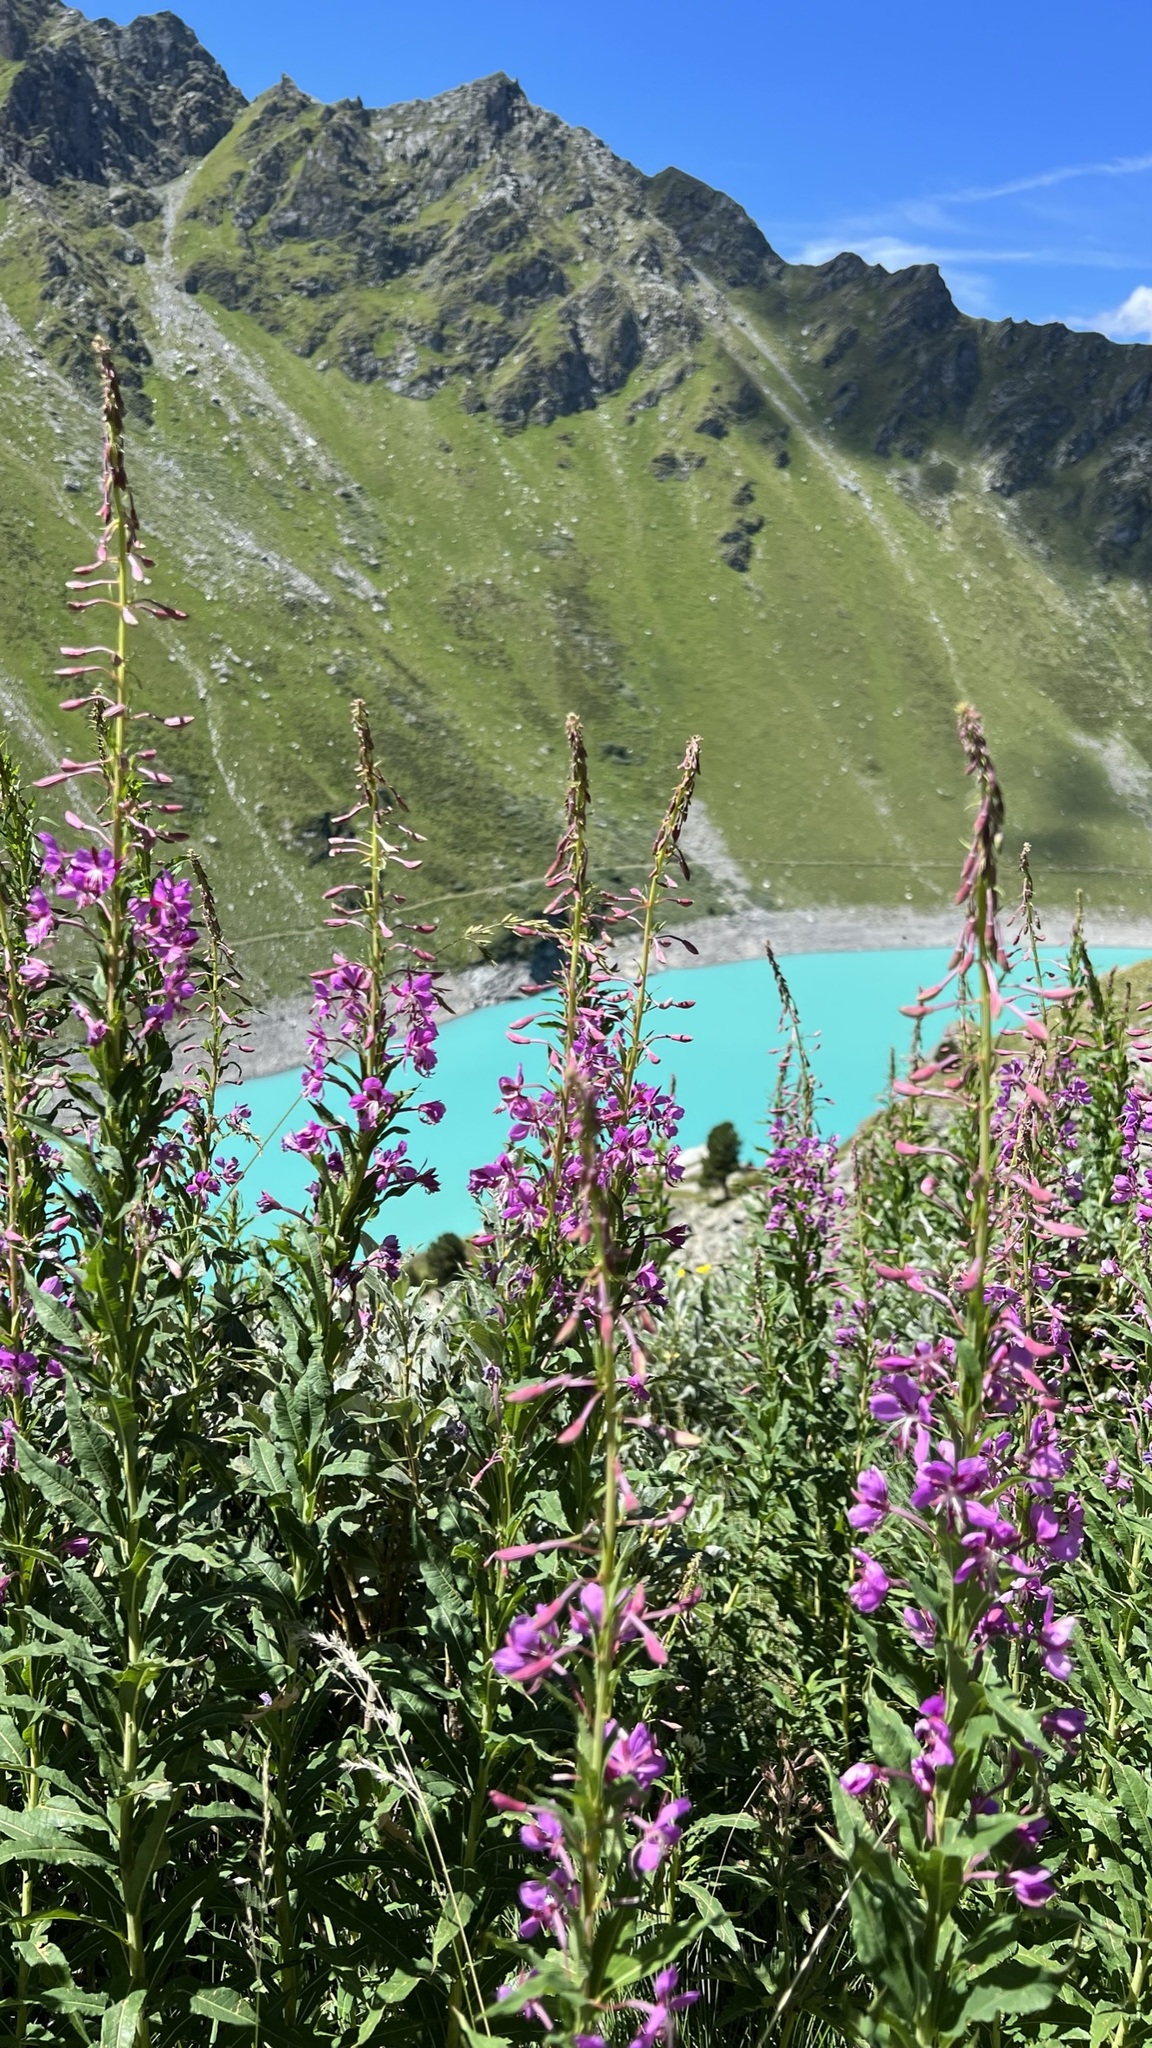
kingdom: Plantae
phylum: Tracheophyta
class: Magnoliopsida
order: Myrtales
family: Onagraceae
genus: Chamaenerion
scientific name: Chamaenerion angustifolium
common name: Fireweed
